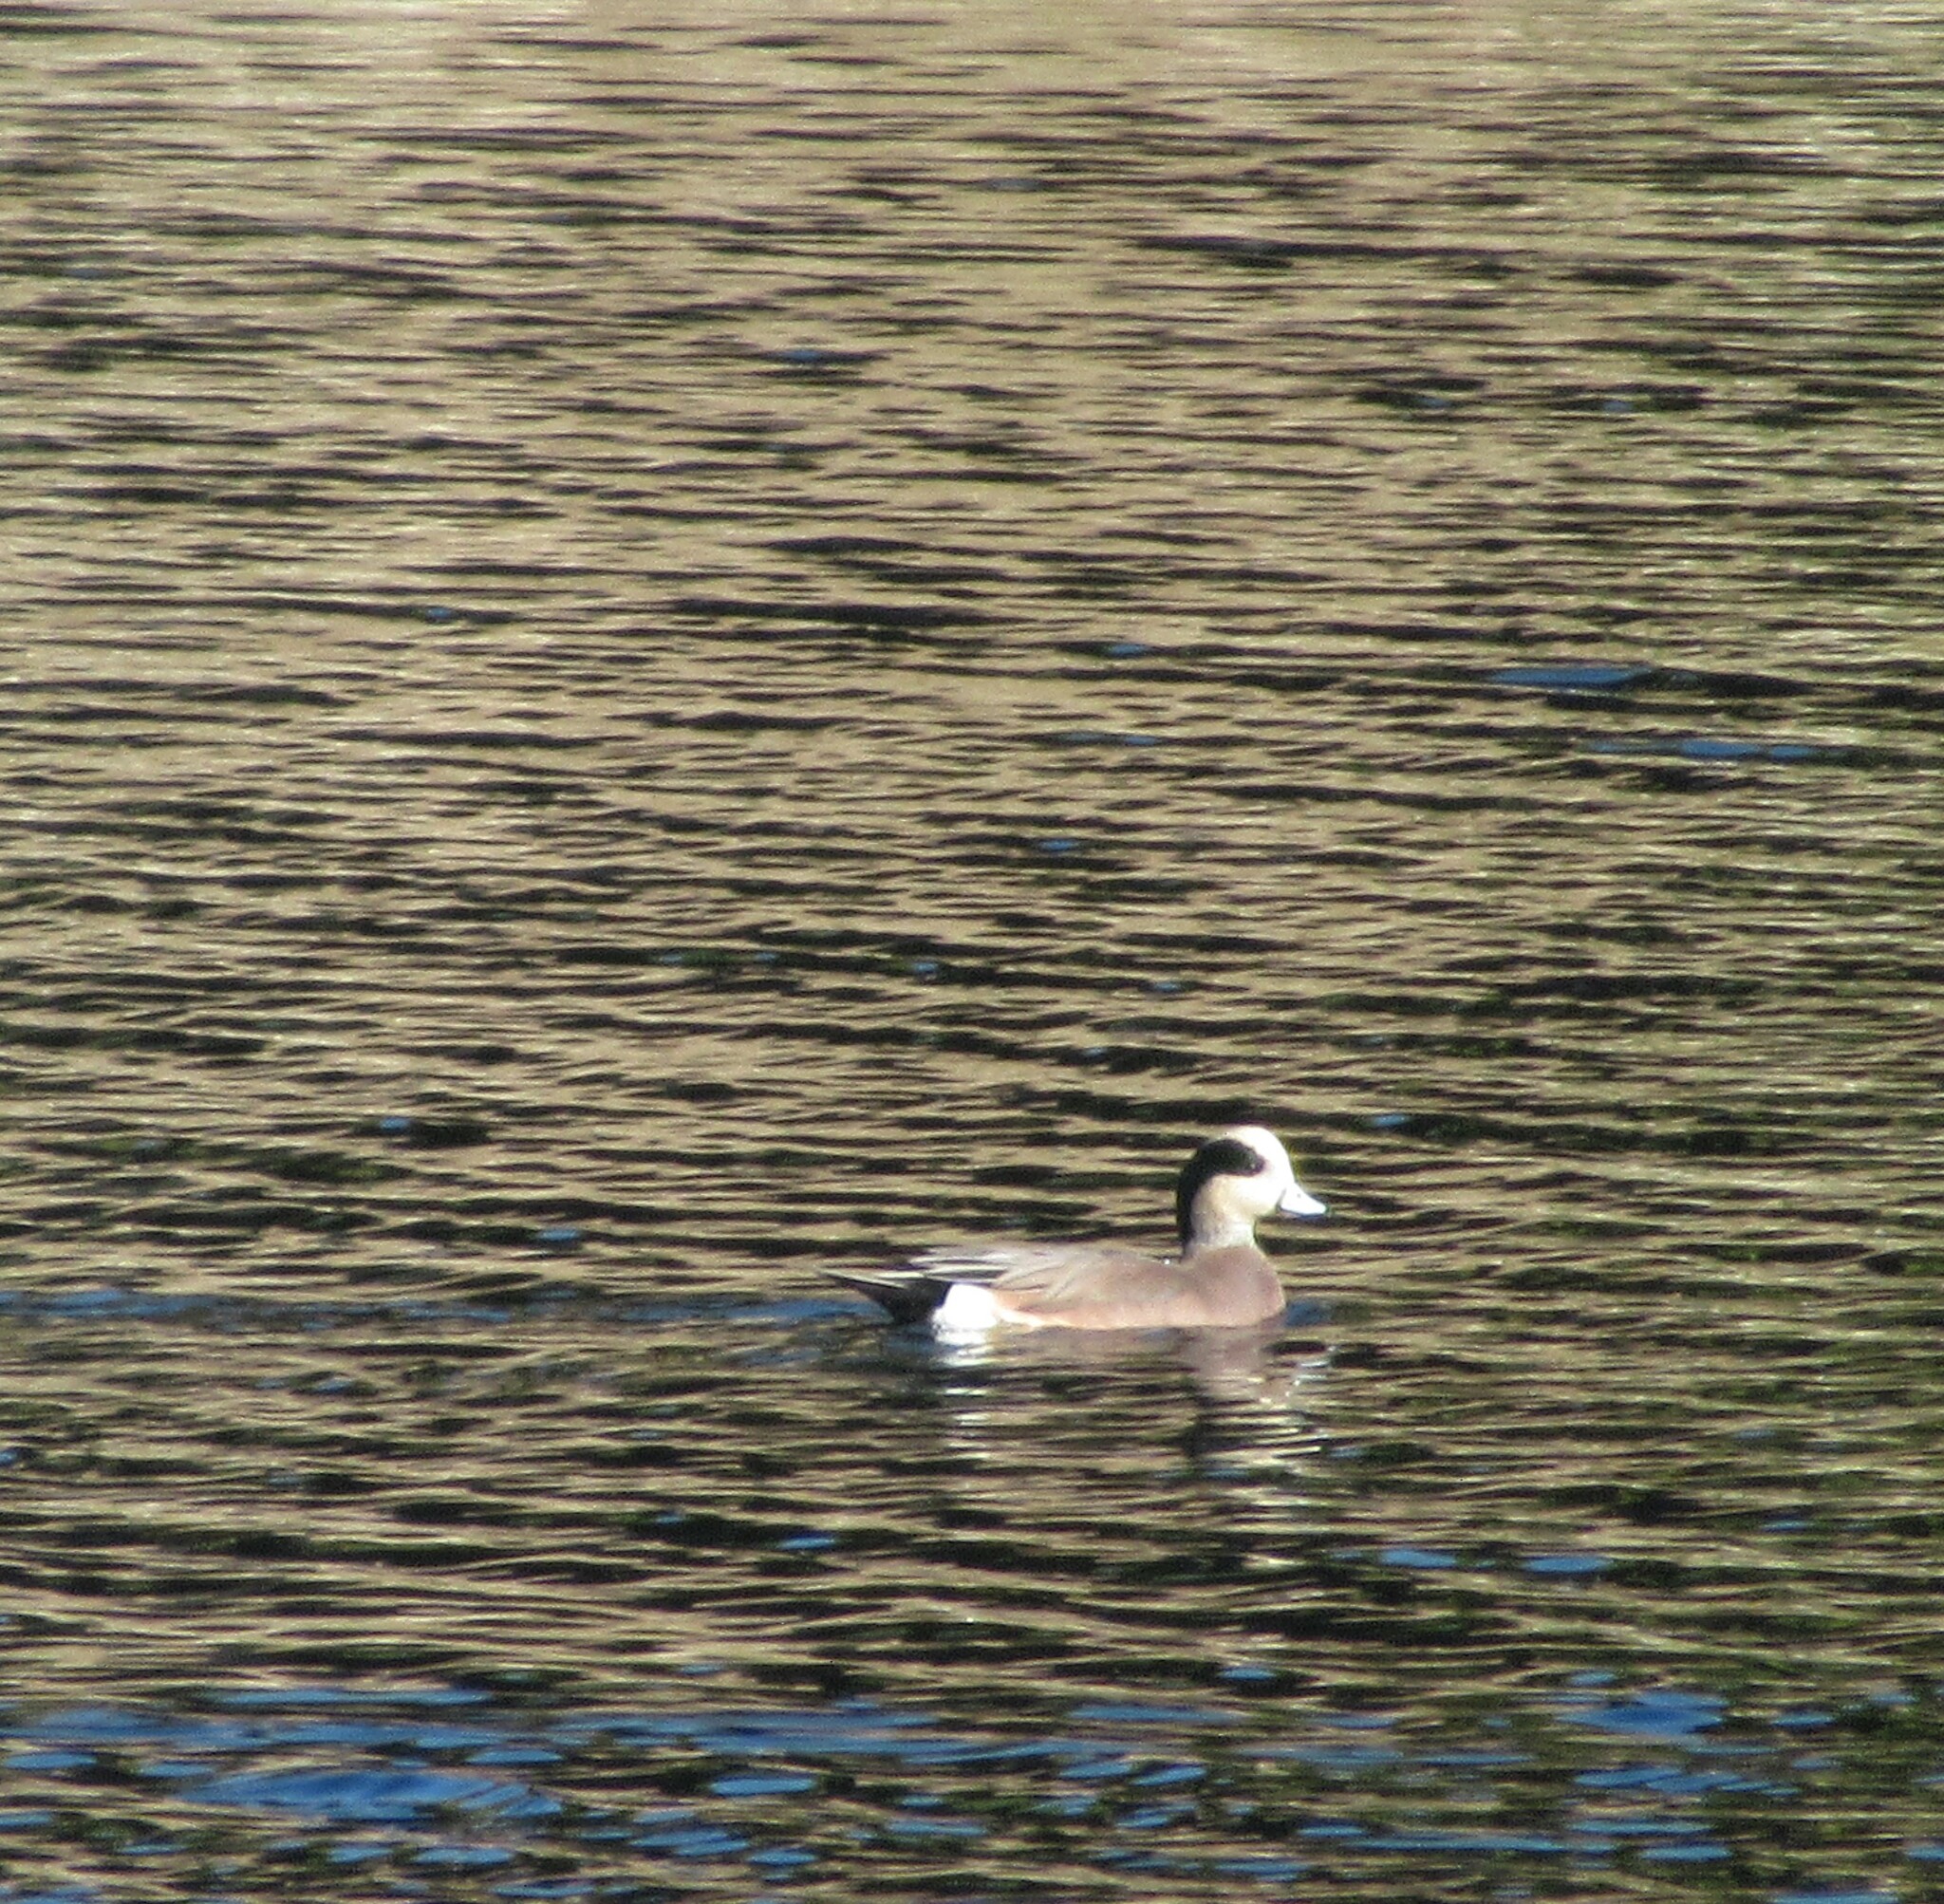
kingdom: Animalia
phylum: Chordata
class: Aves
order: Anseriformes
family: Anatidae
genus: Mareca
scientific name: Mareca americana
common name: American wigeon
